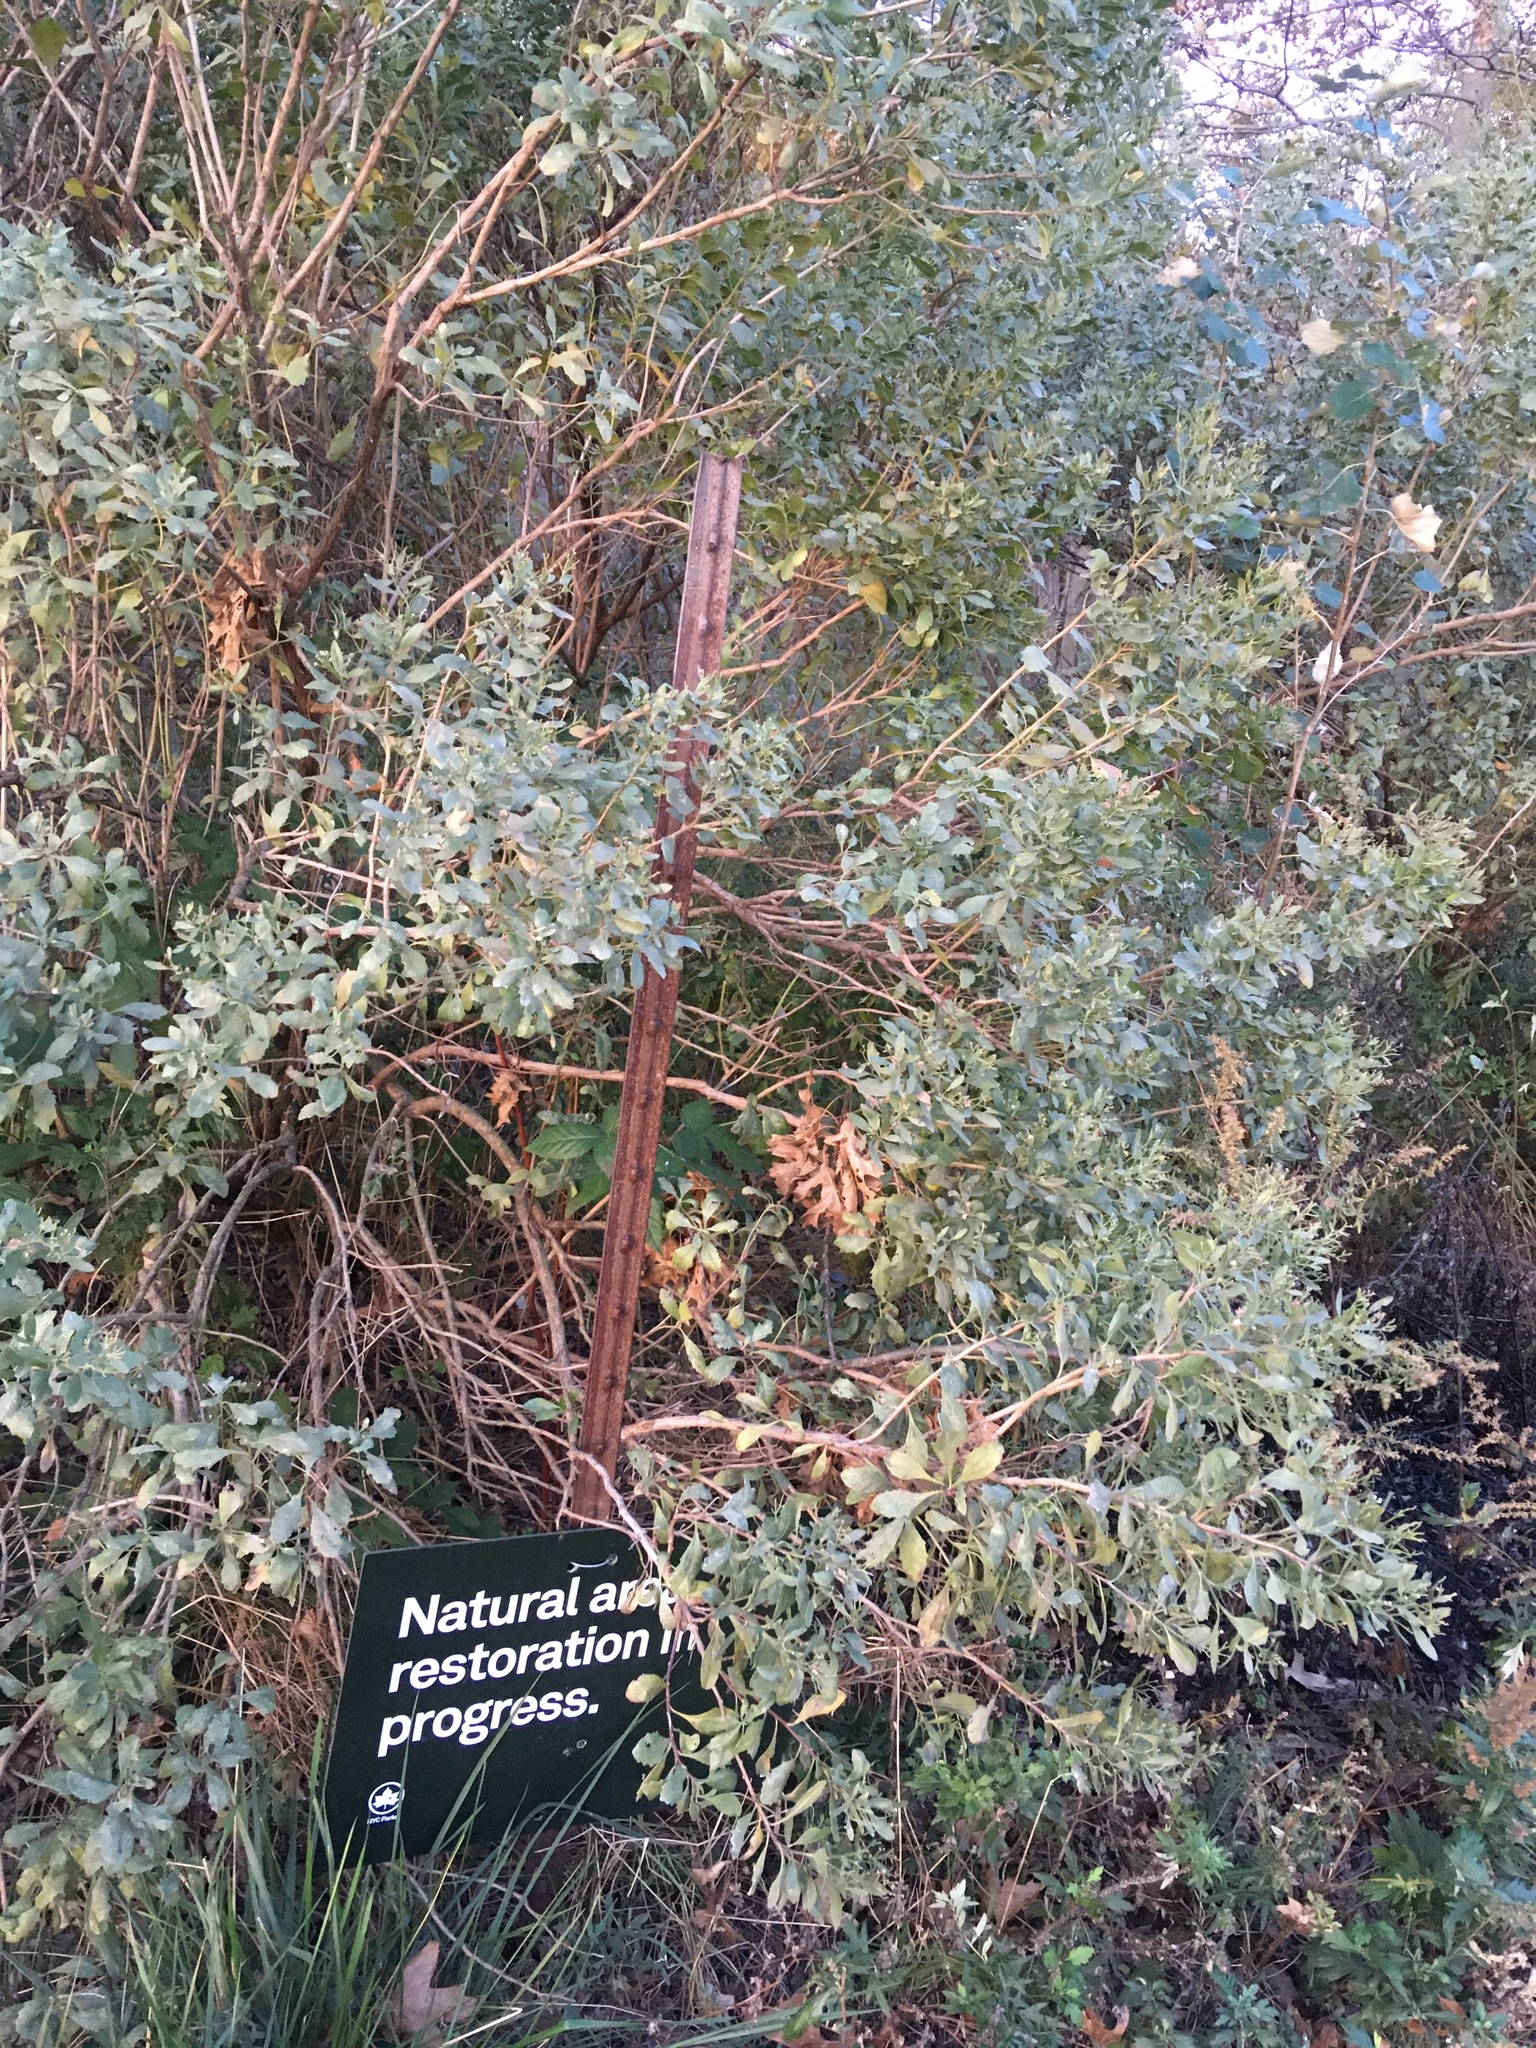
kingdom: Plantae
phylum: Tracheophyta
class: Magnoliopsida
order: Asterales
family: Asteraceae
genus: Baccharis
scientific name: Baccharis halimifolia
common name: Eastern baccharis
